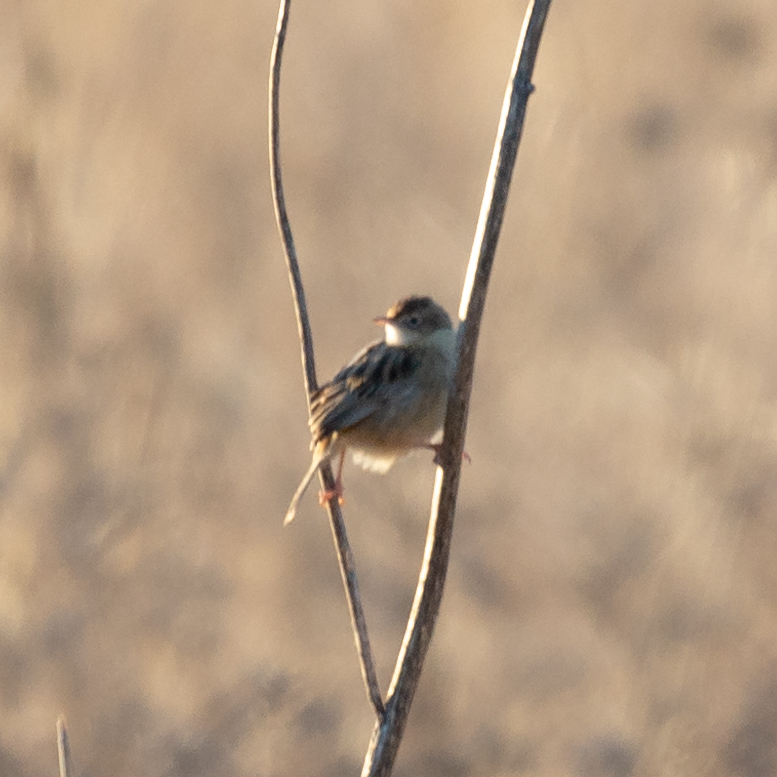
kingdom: Animalia
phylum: Chordata
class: Aves
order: Passeriformes
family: Cisticolidae
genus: Cisticola
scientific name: Cisticola juncidis
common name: Zitting cisticola
